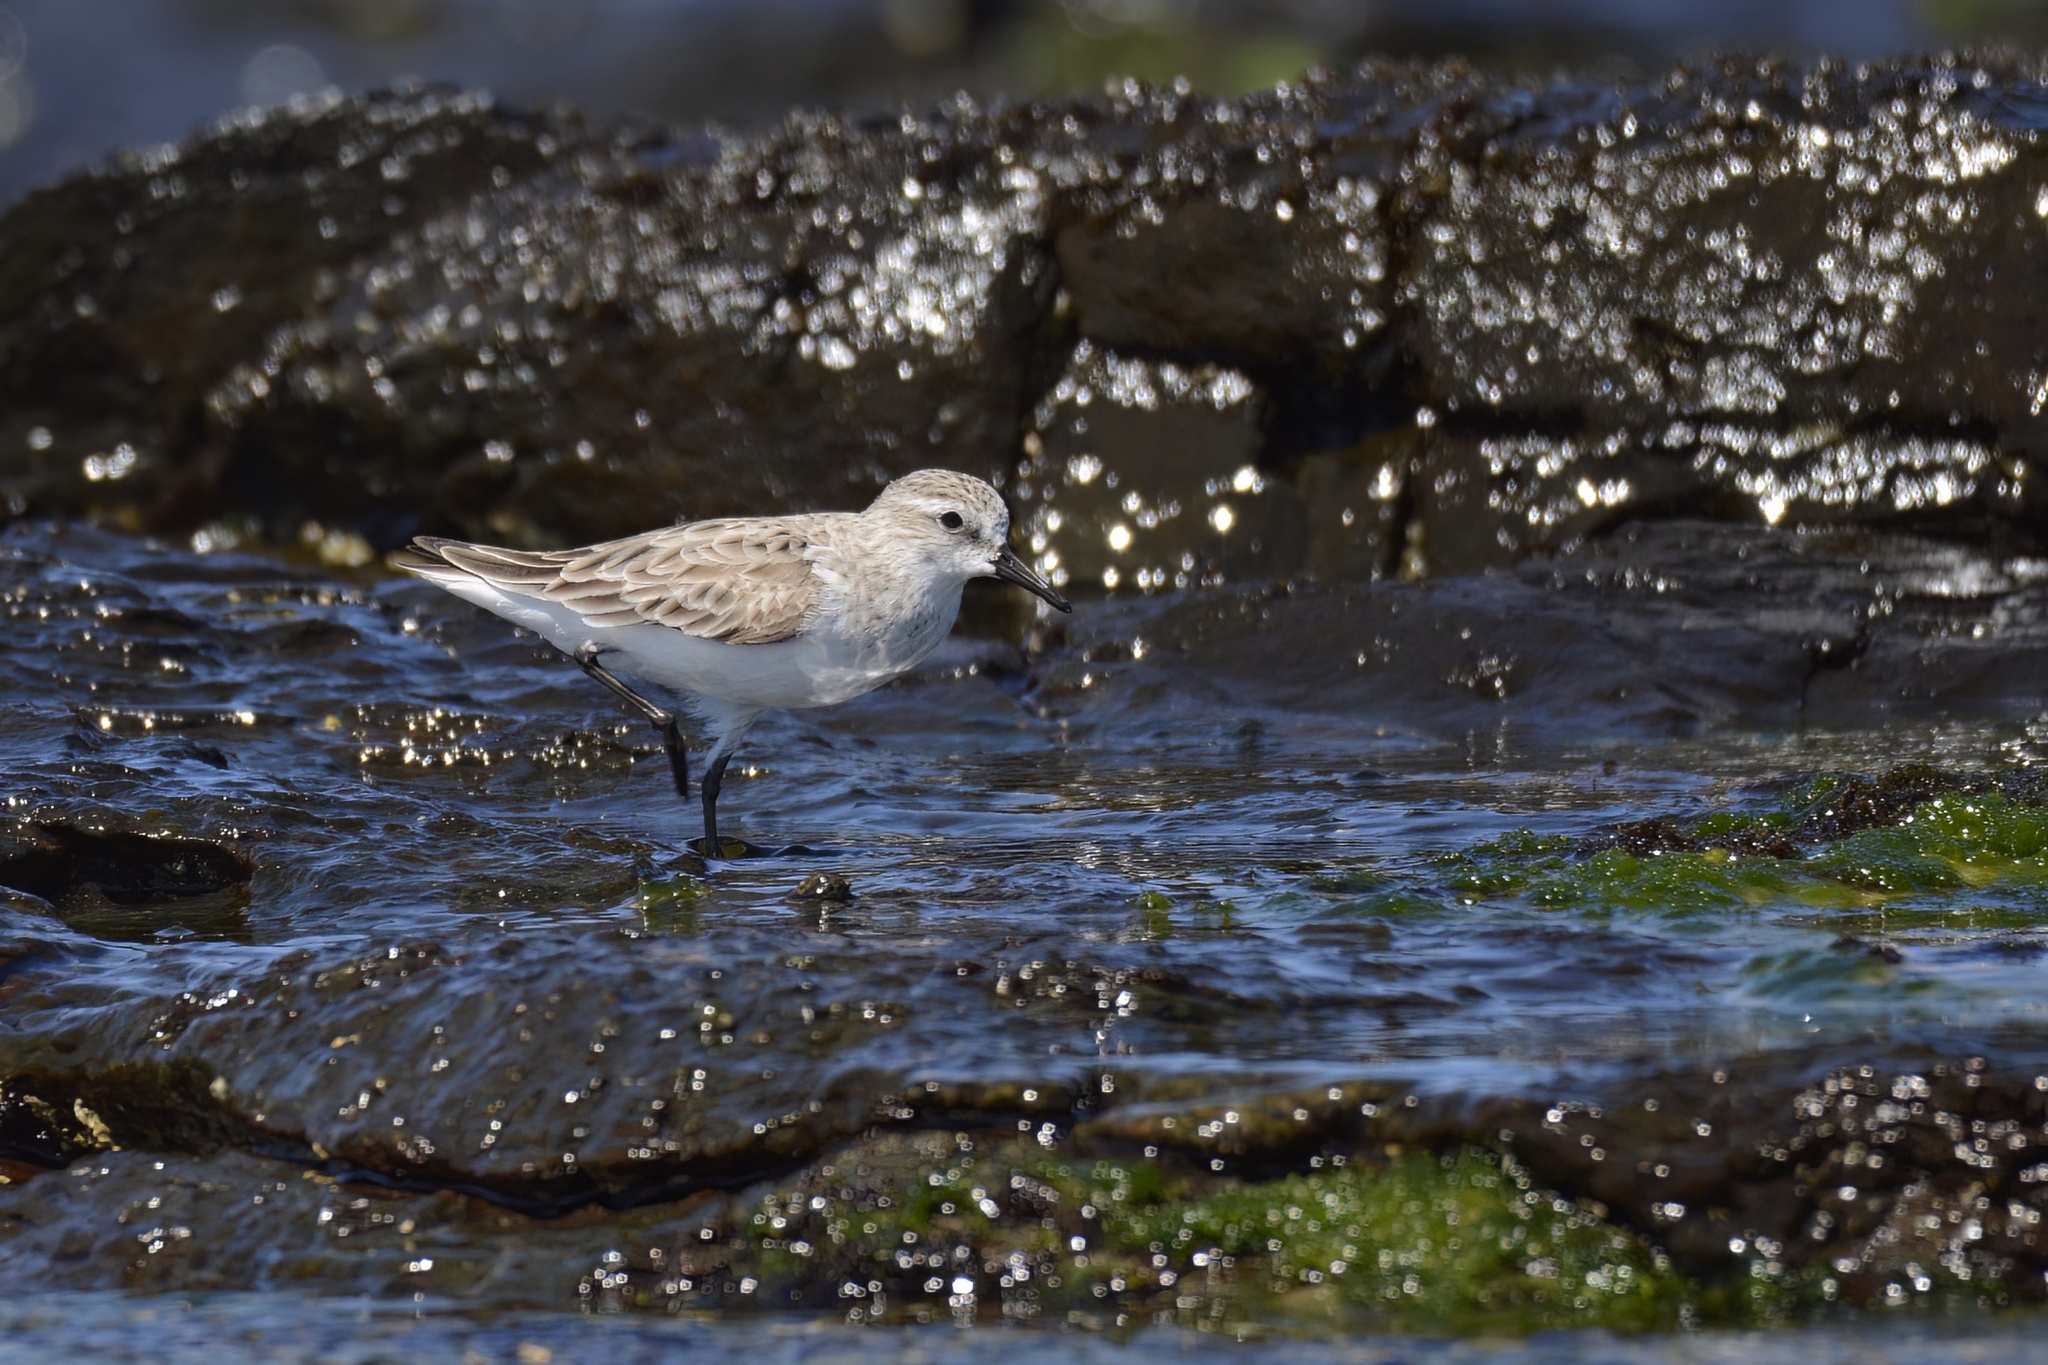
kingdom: Animalia
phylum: Chordata
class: Aves
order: Charadriiformes
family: Scolopacidae
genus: Calidris
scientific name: Calidris ruficollis
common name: Red-necked stint
